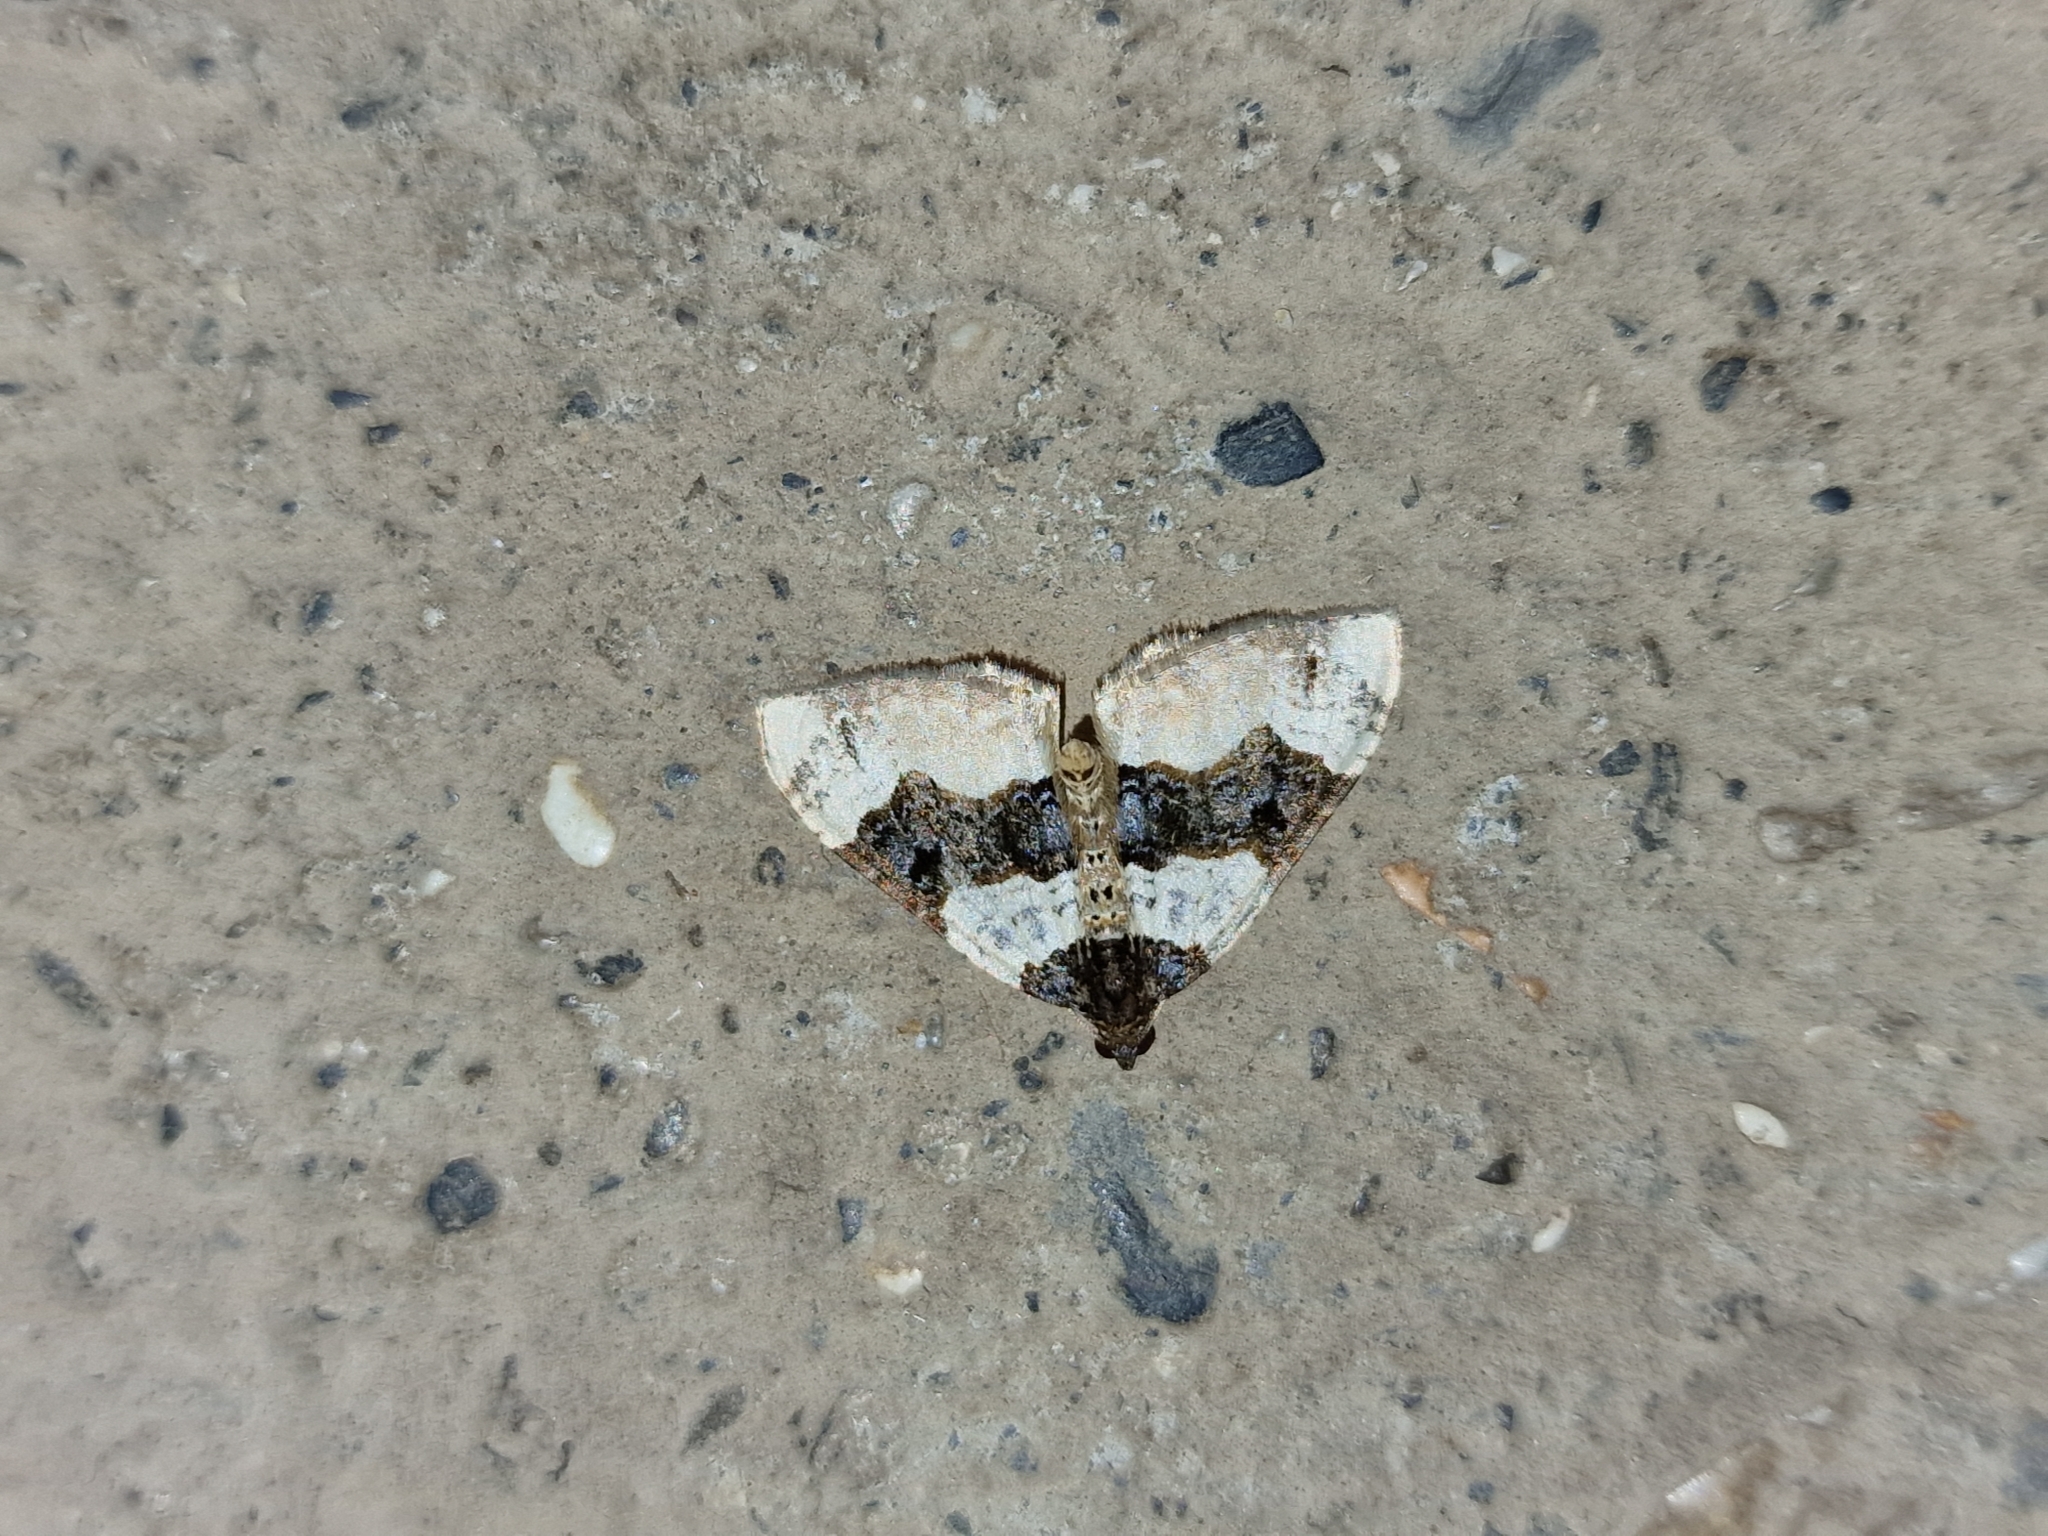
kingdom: Animalia
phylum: Arthropoda
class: Insecta
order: Lepidoptera
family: Geometridae
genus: Cosmorhoe
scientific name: Cosmorhoe ocellata
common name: Purple bar
